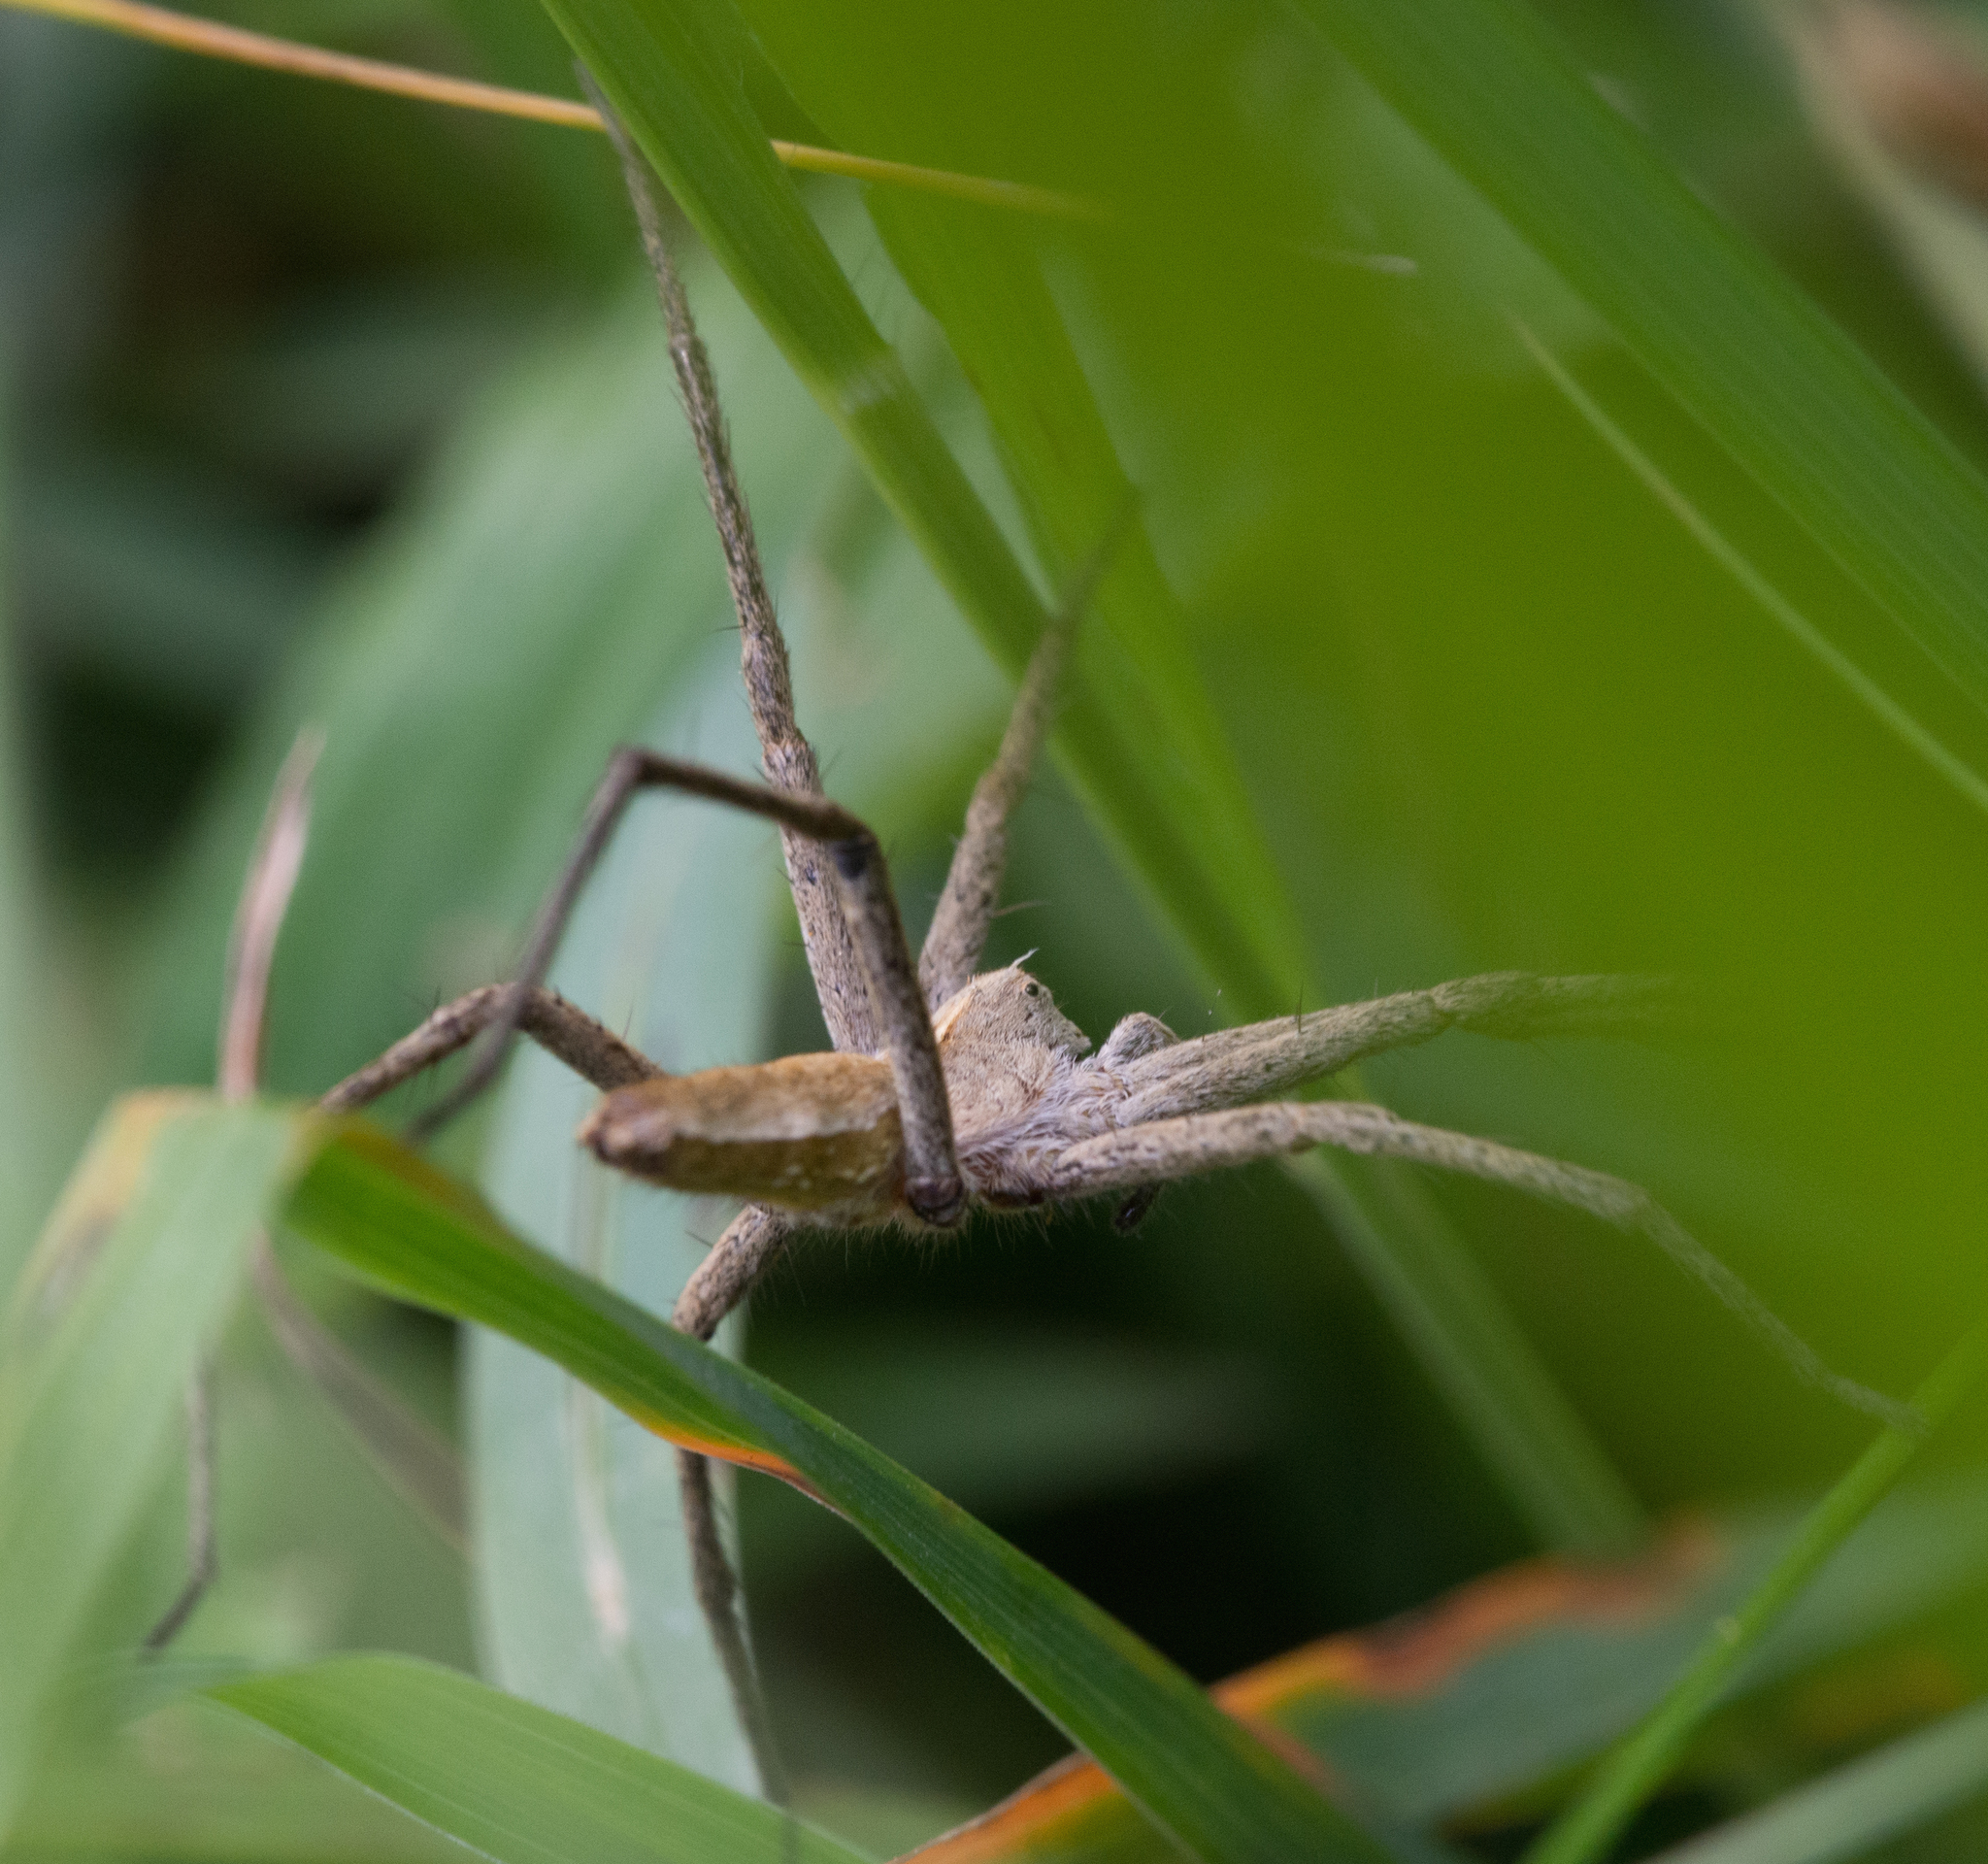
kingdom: Animalia
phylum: Arthropoda
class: Arachnida
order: Araneae
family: Pisauridae
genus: Pisaura
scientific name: Pisaura mirabilis
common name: Tent spider
